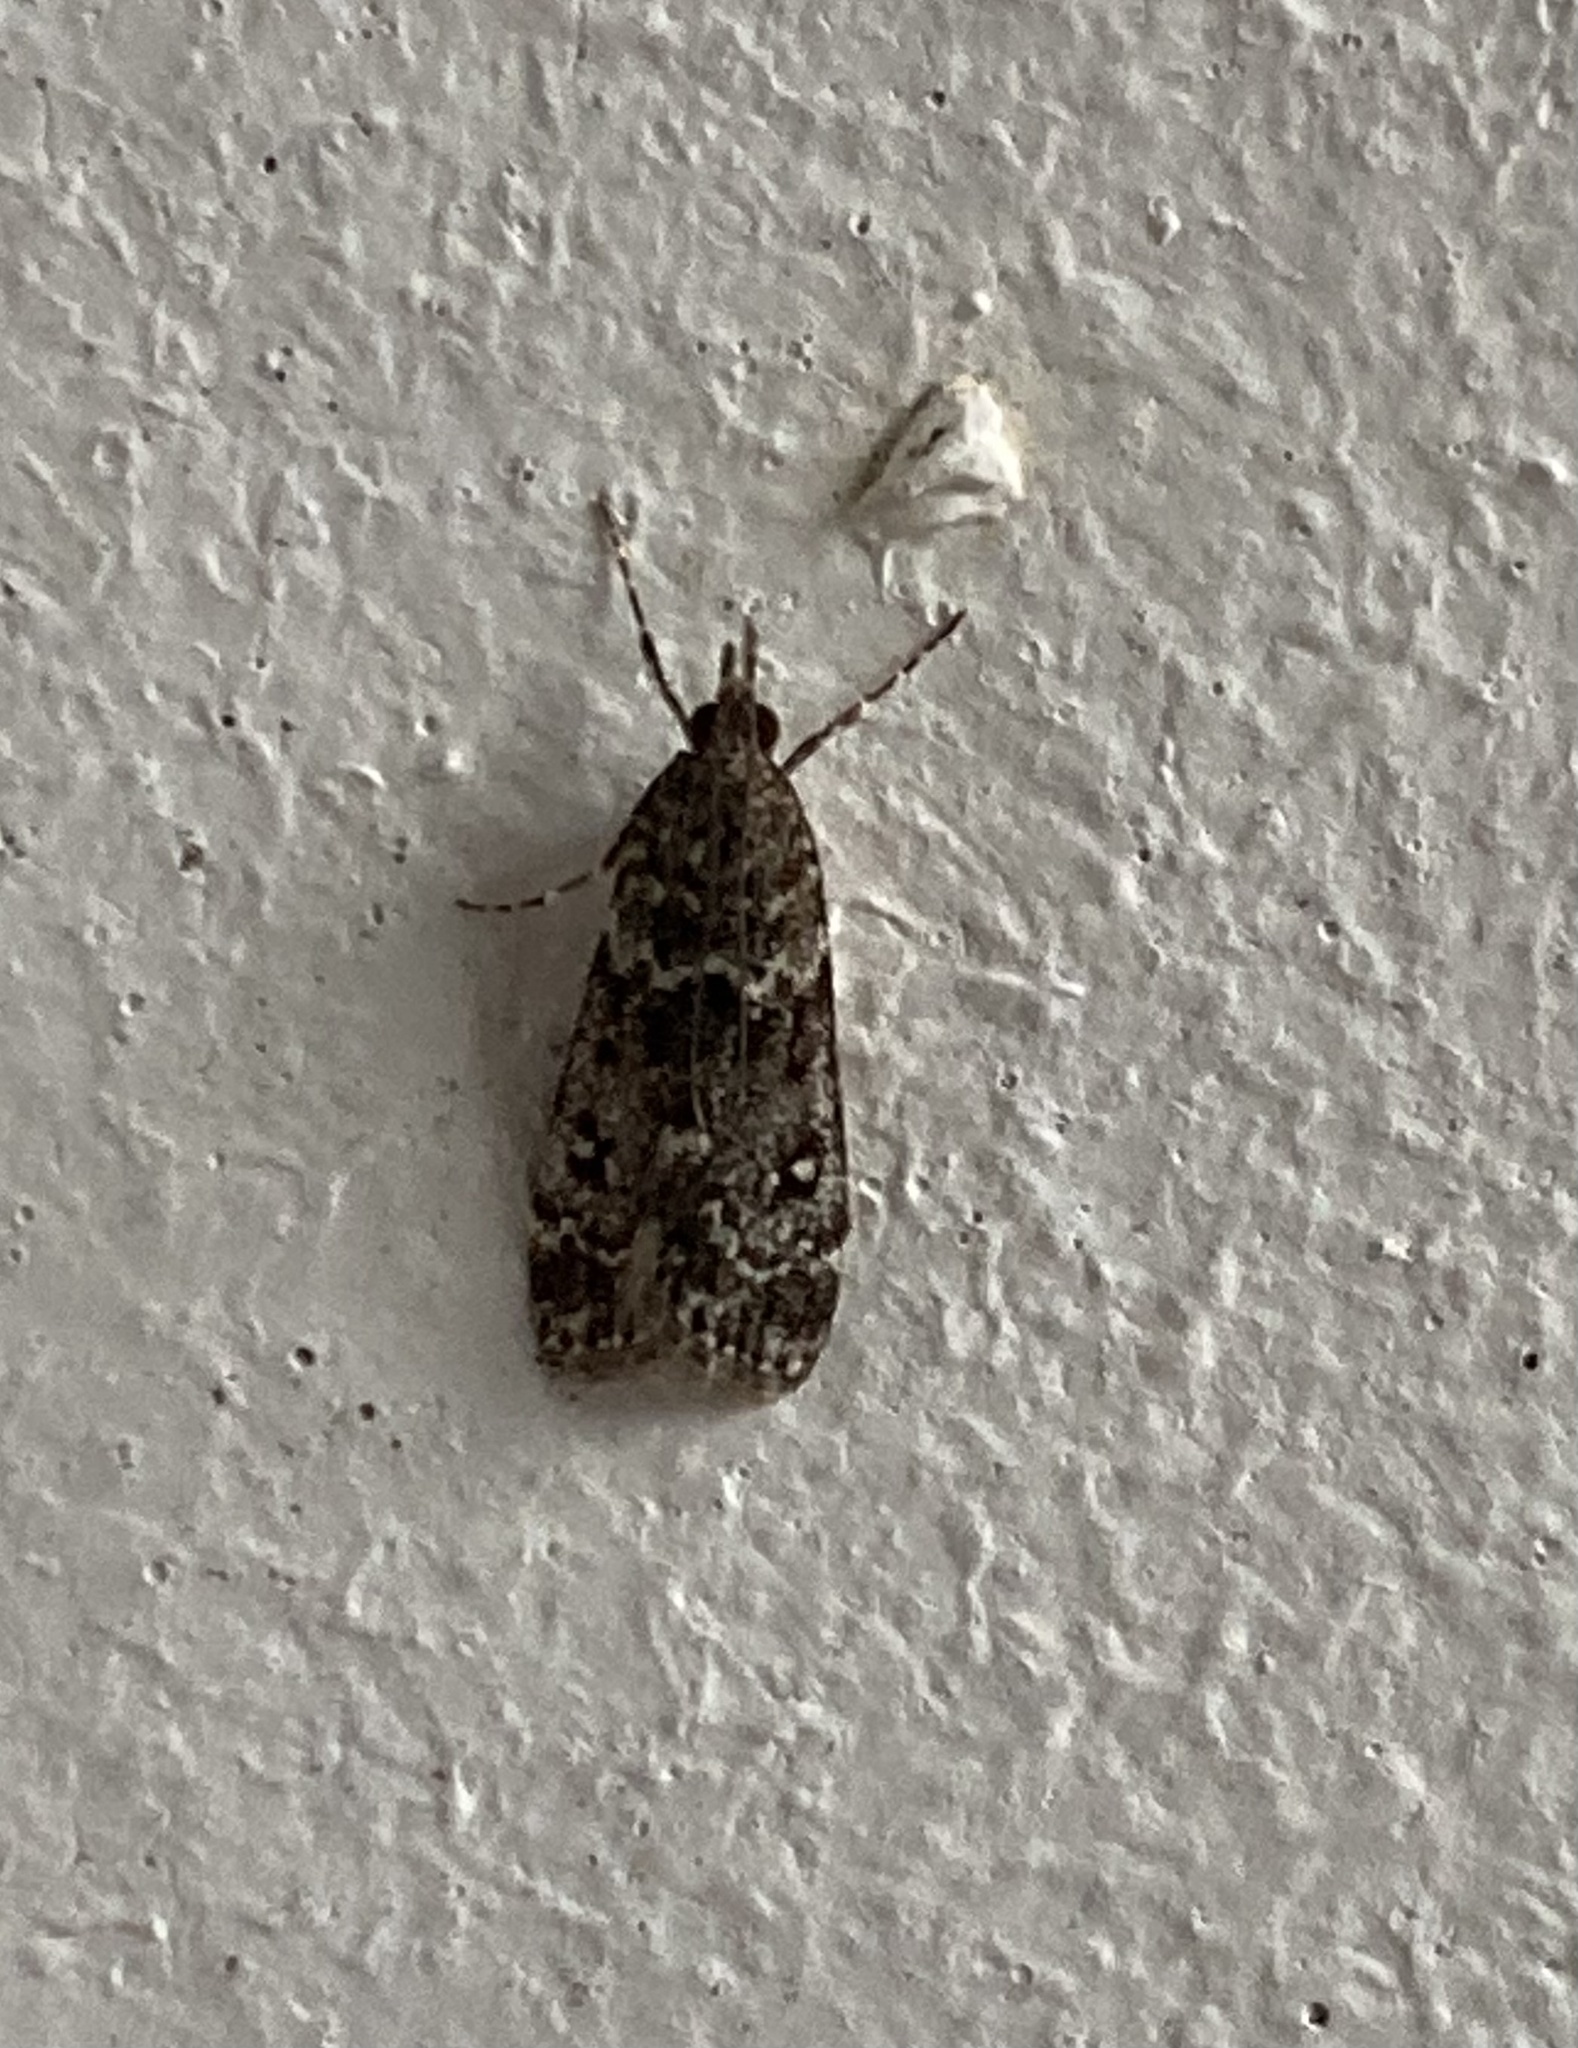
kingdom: Animalia
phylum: Arthropoda
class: Insecta
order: Lepidoptera
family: Crambidae
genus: Eudonia
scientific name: Eudonia philerga
